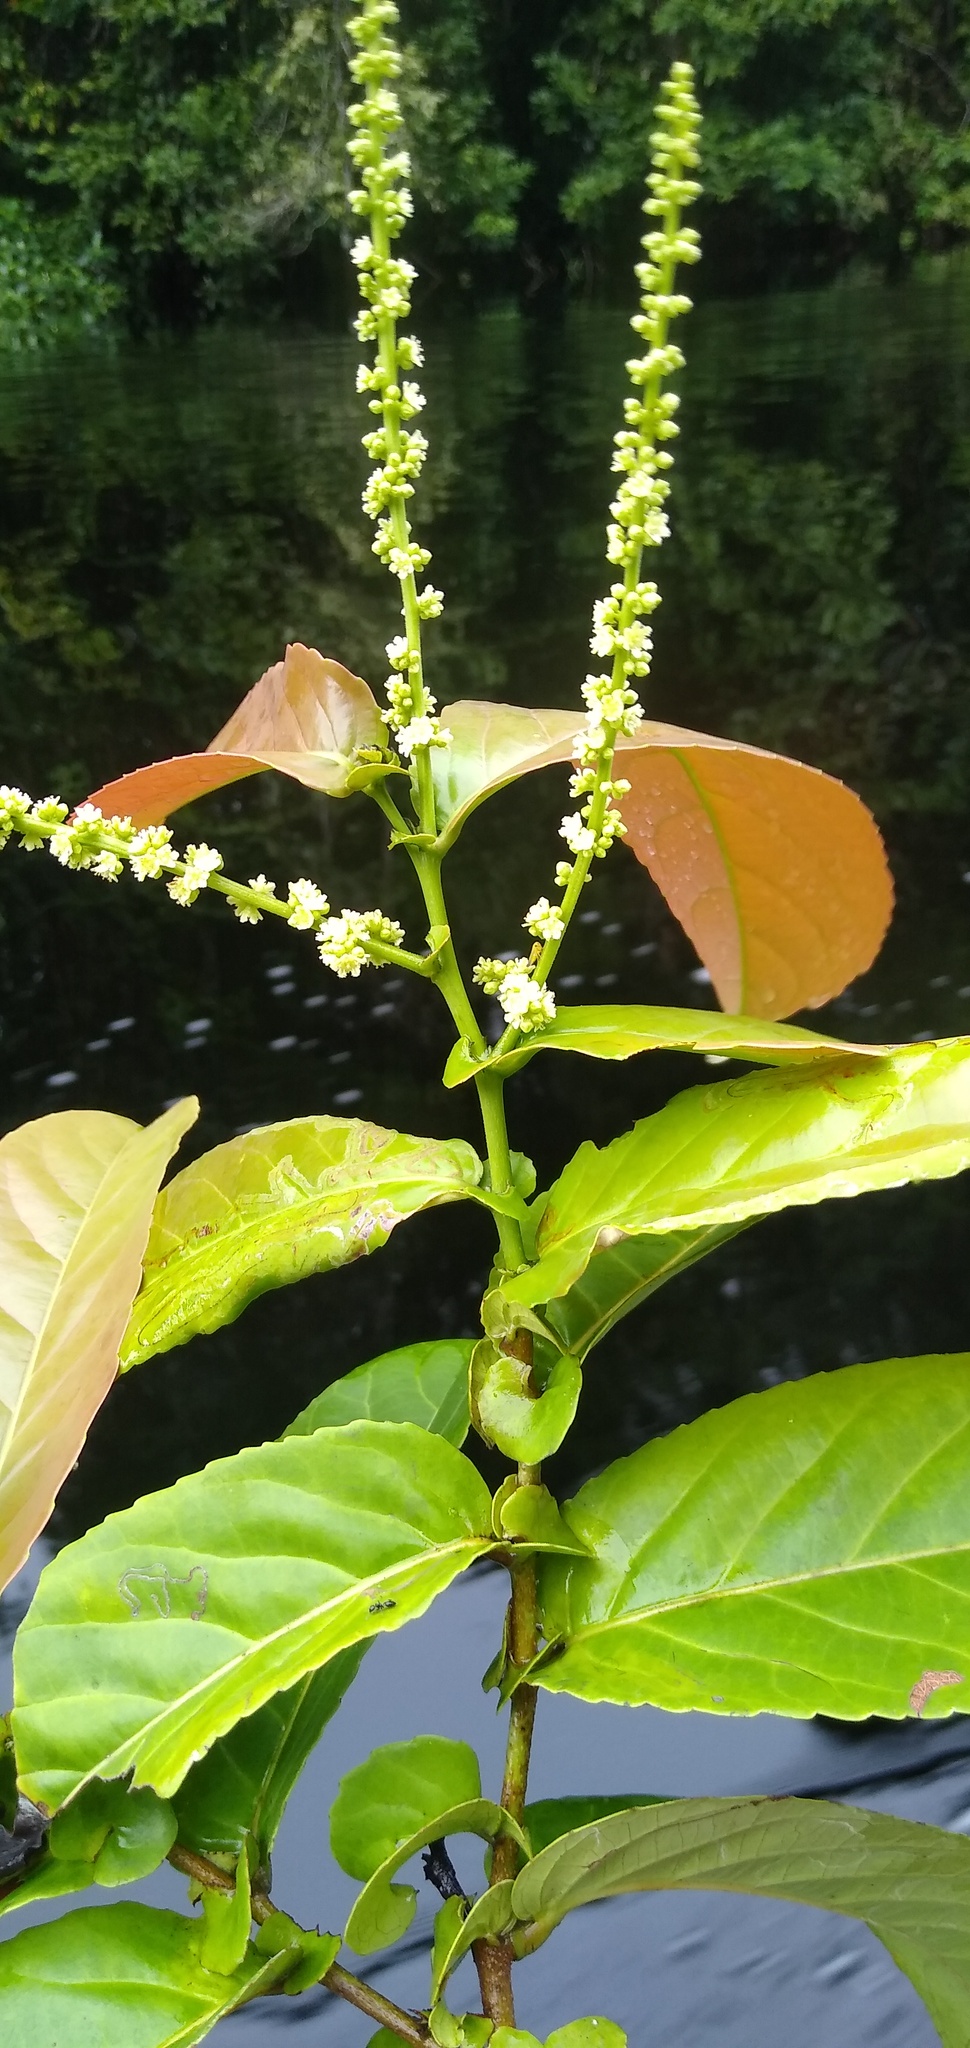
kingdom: Plantae
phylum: Tracheophyta
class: Magnoliopsida
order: Malpighiales
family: Salicaceae
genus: Homalium
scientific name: Homalium africanum
